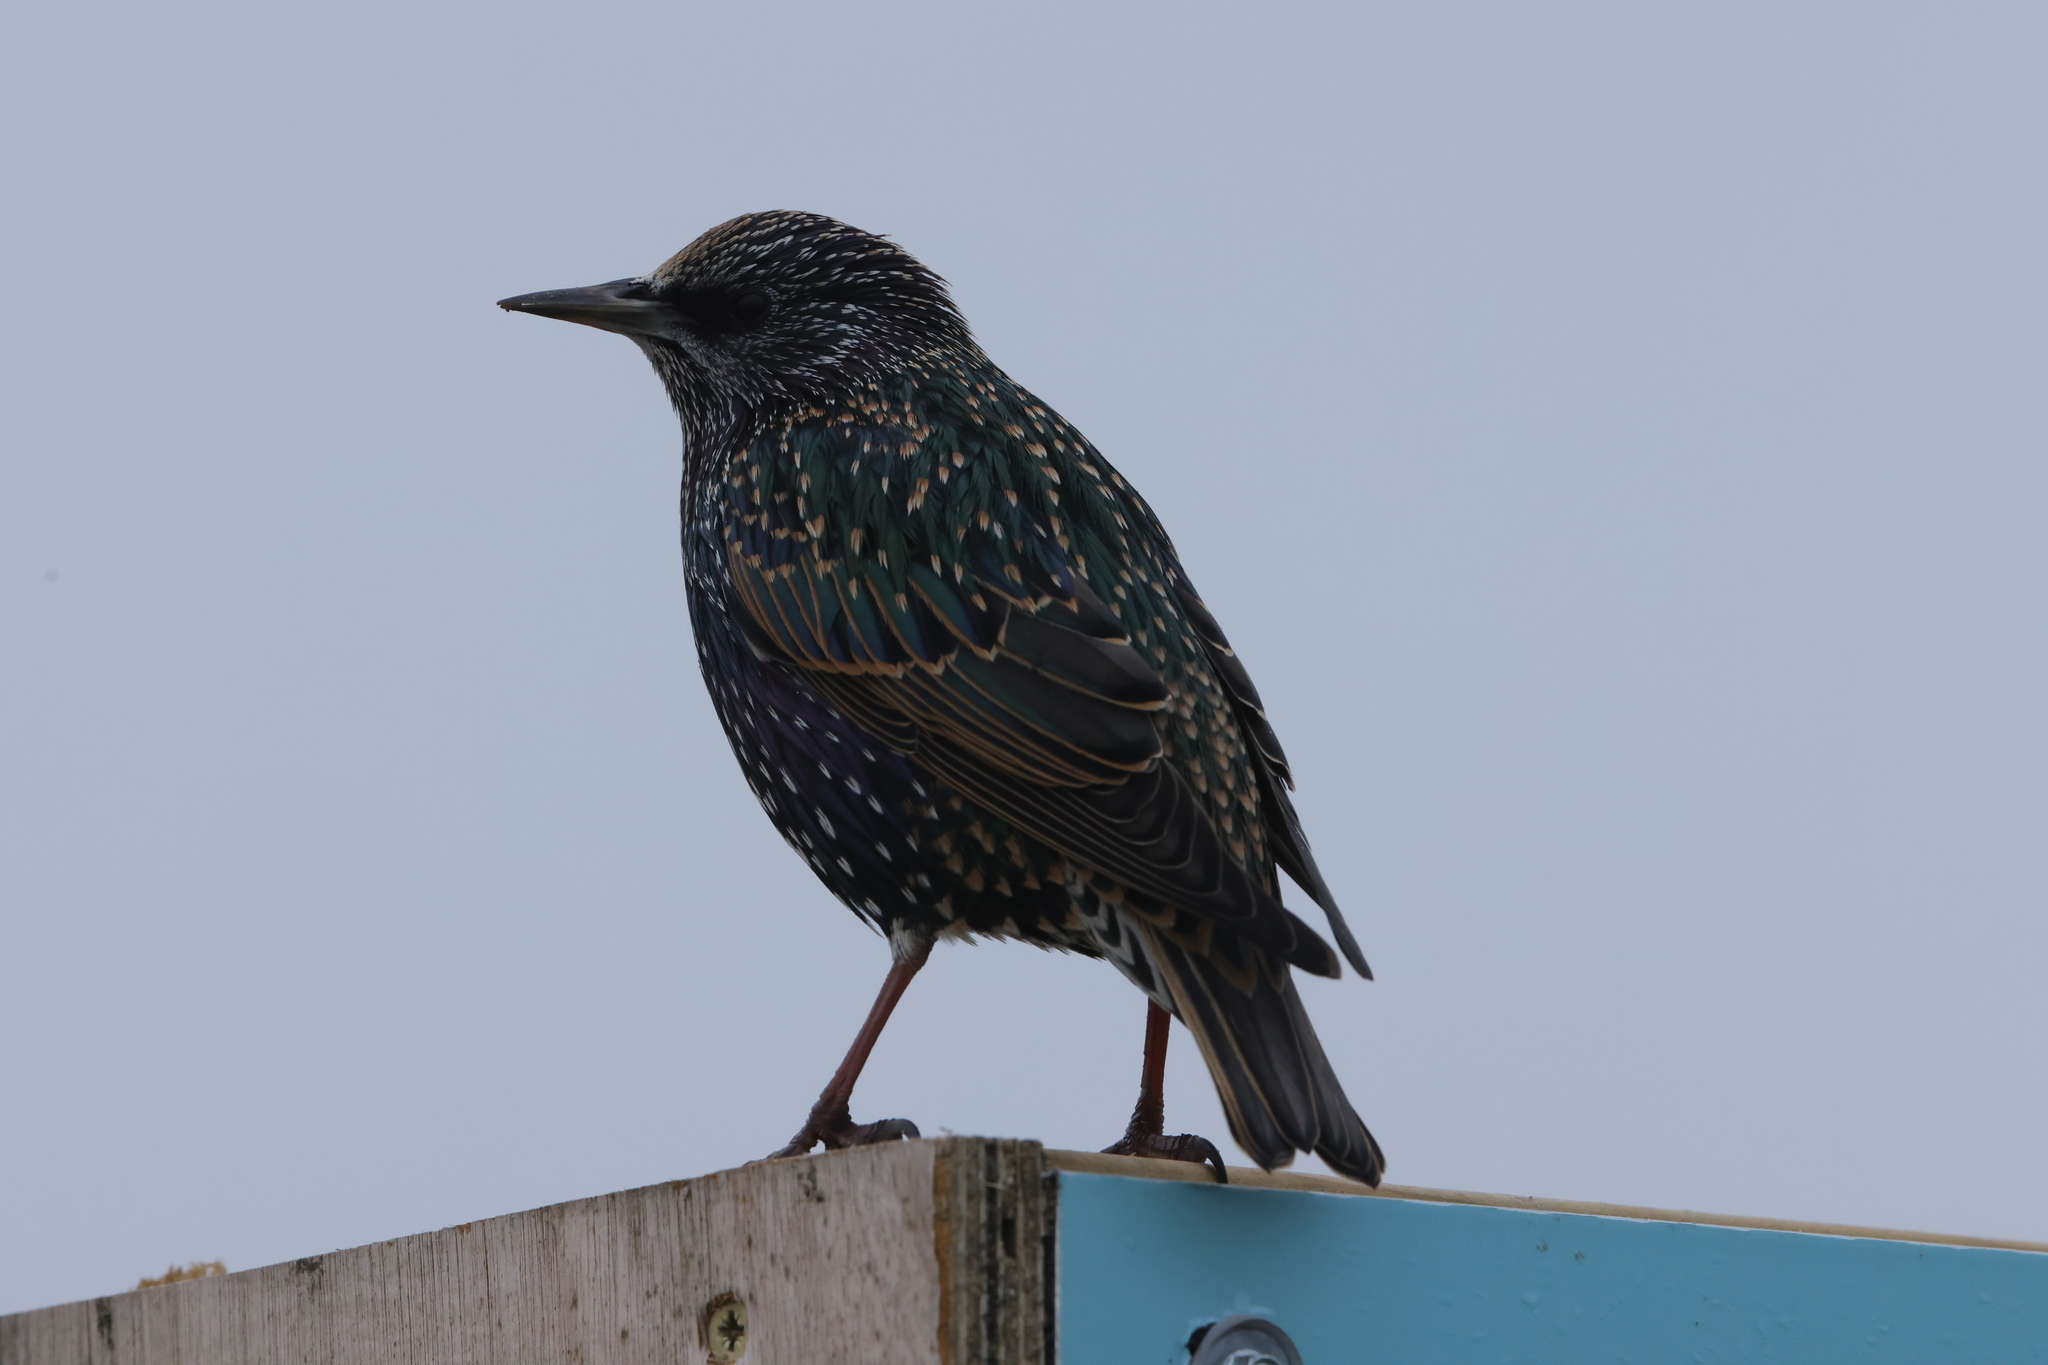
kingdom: Animalia
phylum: Chordata
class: Aves
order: Passeriformes
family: Sturnidae
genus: Sturnus
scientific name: Sturnus vulgaris
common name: Common starling
